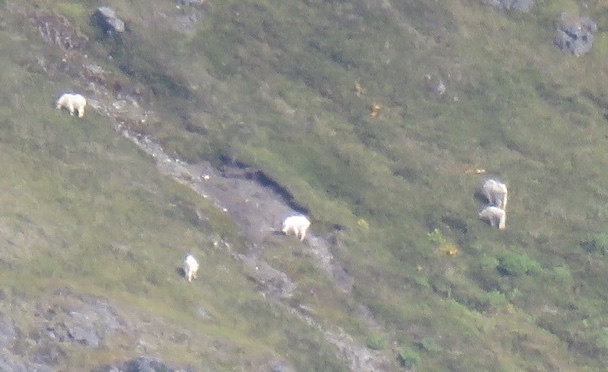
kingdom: Animalia
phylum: Chordata
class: Mammalia
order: Artiodactyla
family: Bovidae
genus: Oreamnos
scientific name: Oreamnos americanus
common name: Mountain goat
